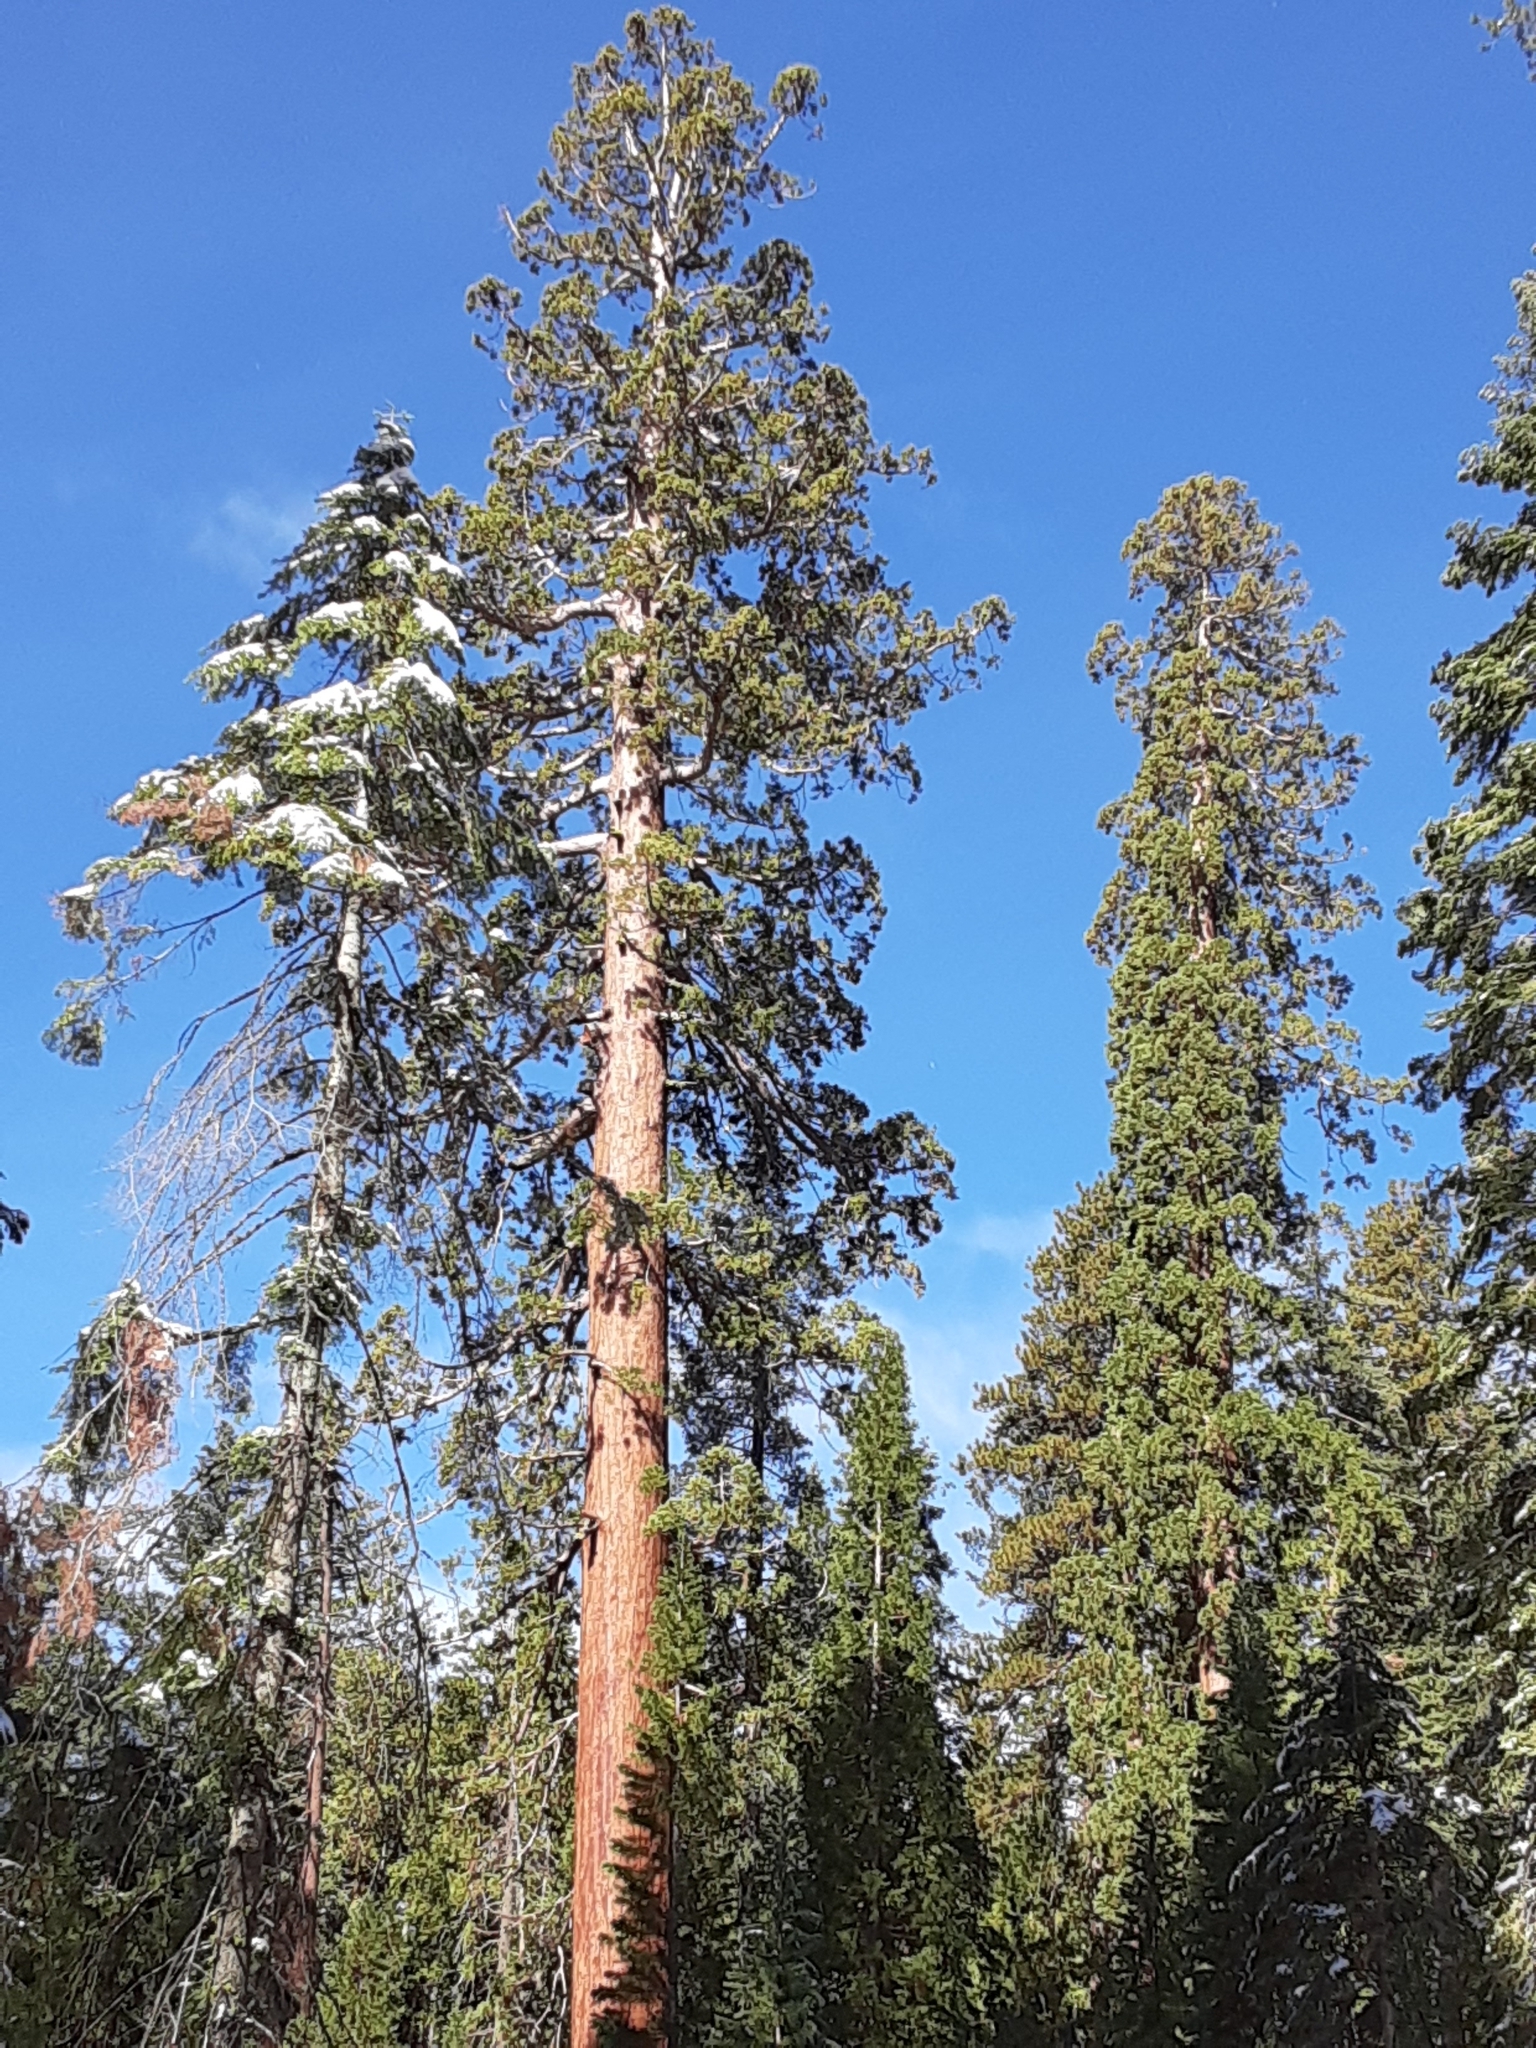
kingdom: Plantae
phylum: Tracheophyta
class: Pinopsida
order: Pinales
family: Cupressaceae
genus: Sequoiadendron
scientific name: Sequoiadendron giganteum
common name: Wellingtonia
